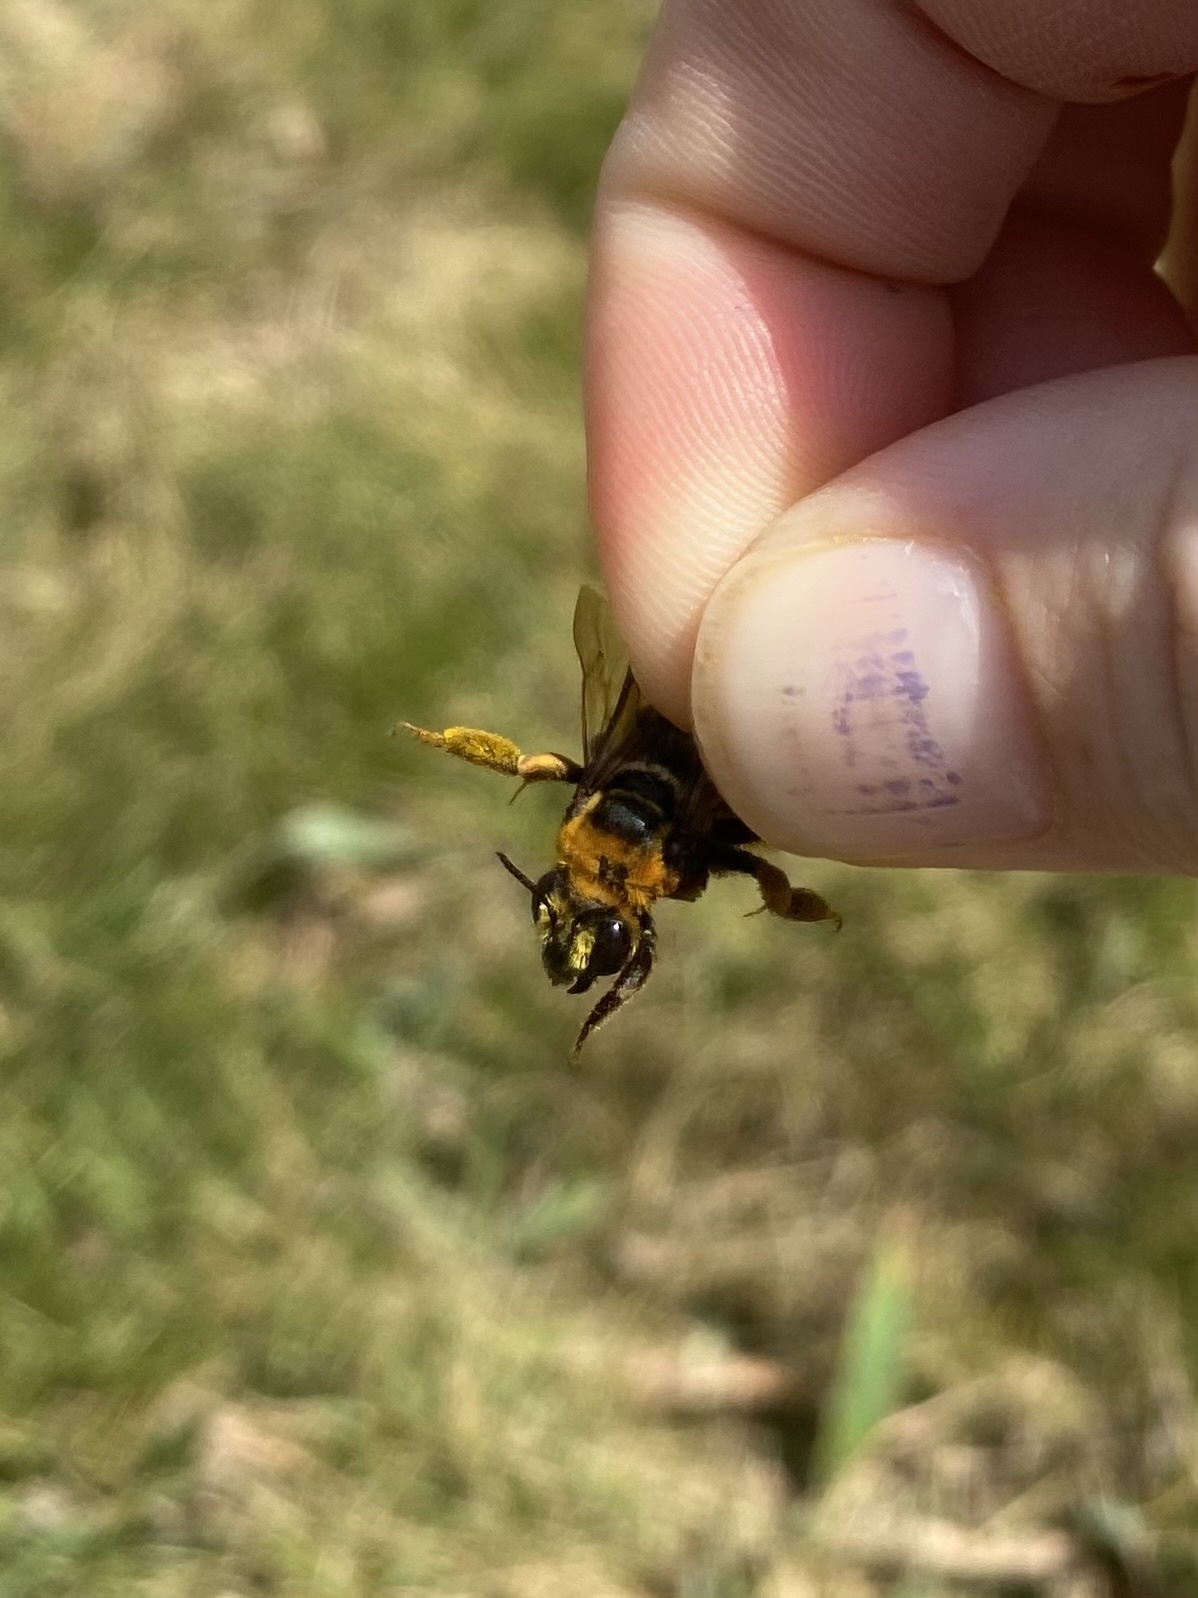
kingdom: Animalia
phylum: Arthropoda
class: Insecta
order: Hymenoptera
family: Apidae
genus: Svastra
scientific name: Svastra obliqua
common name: Oblique longhorn
